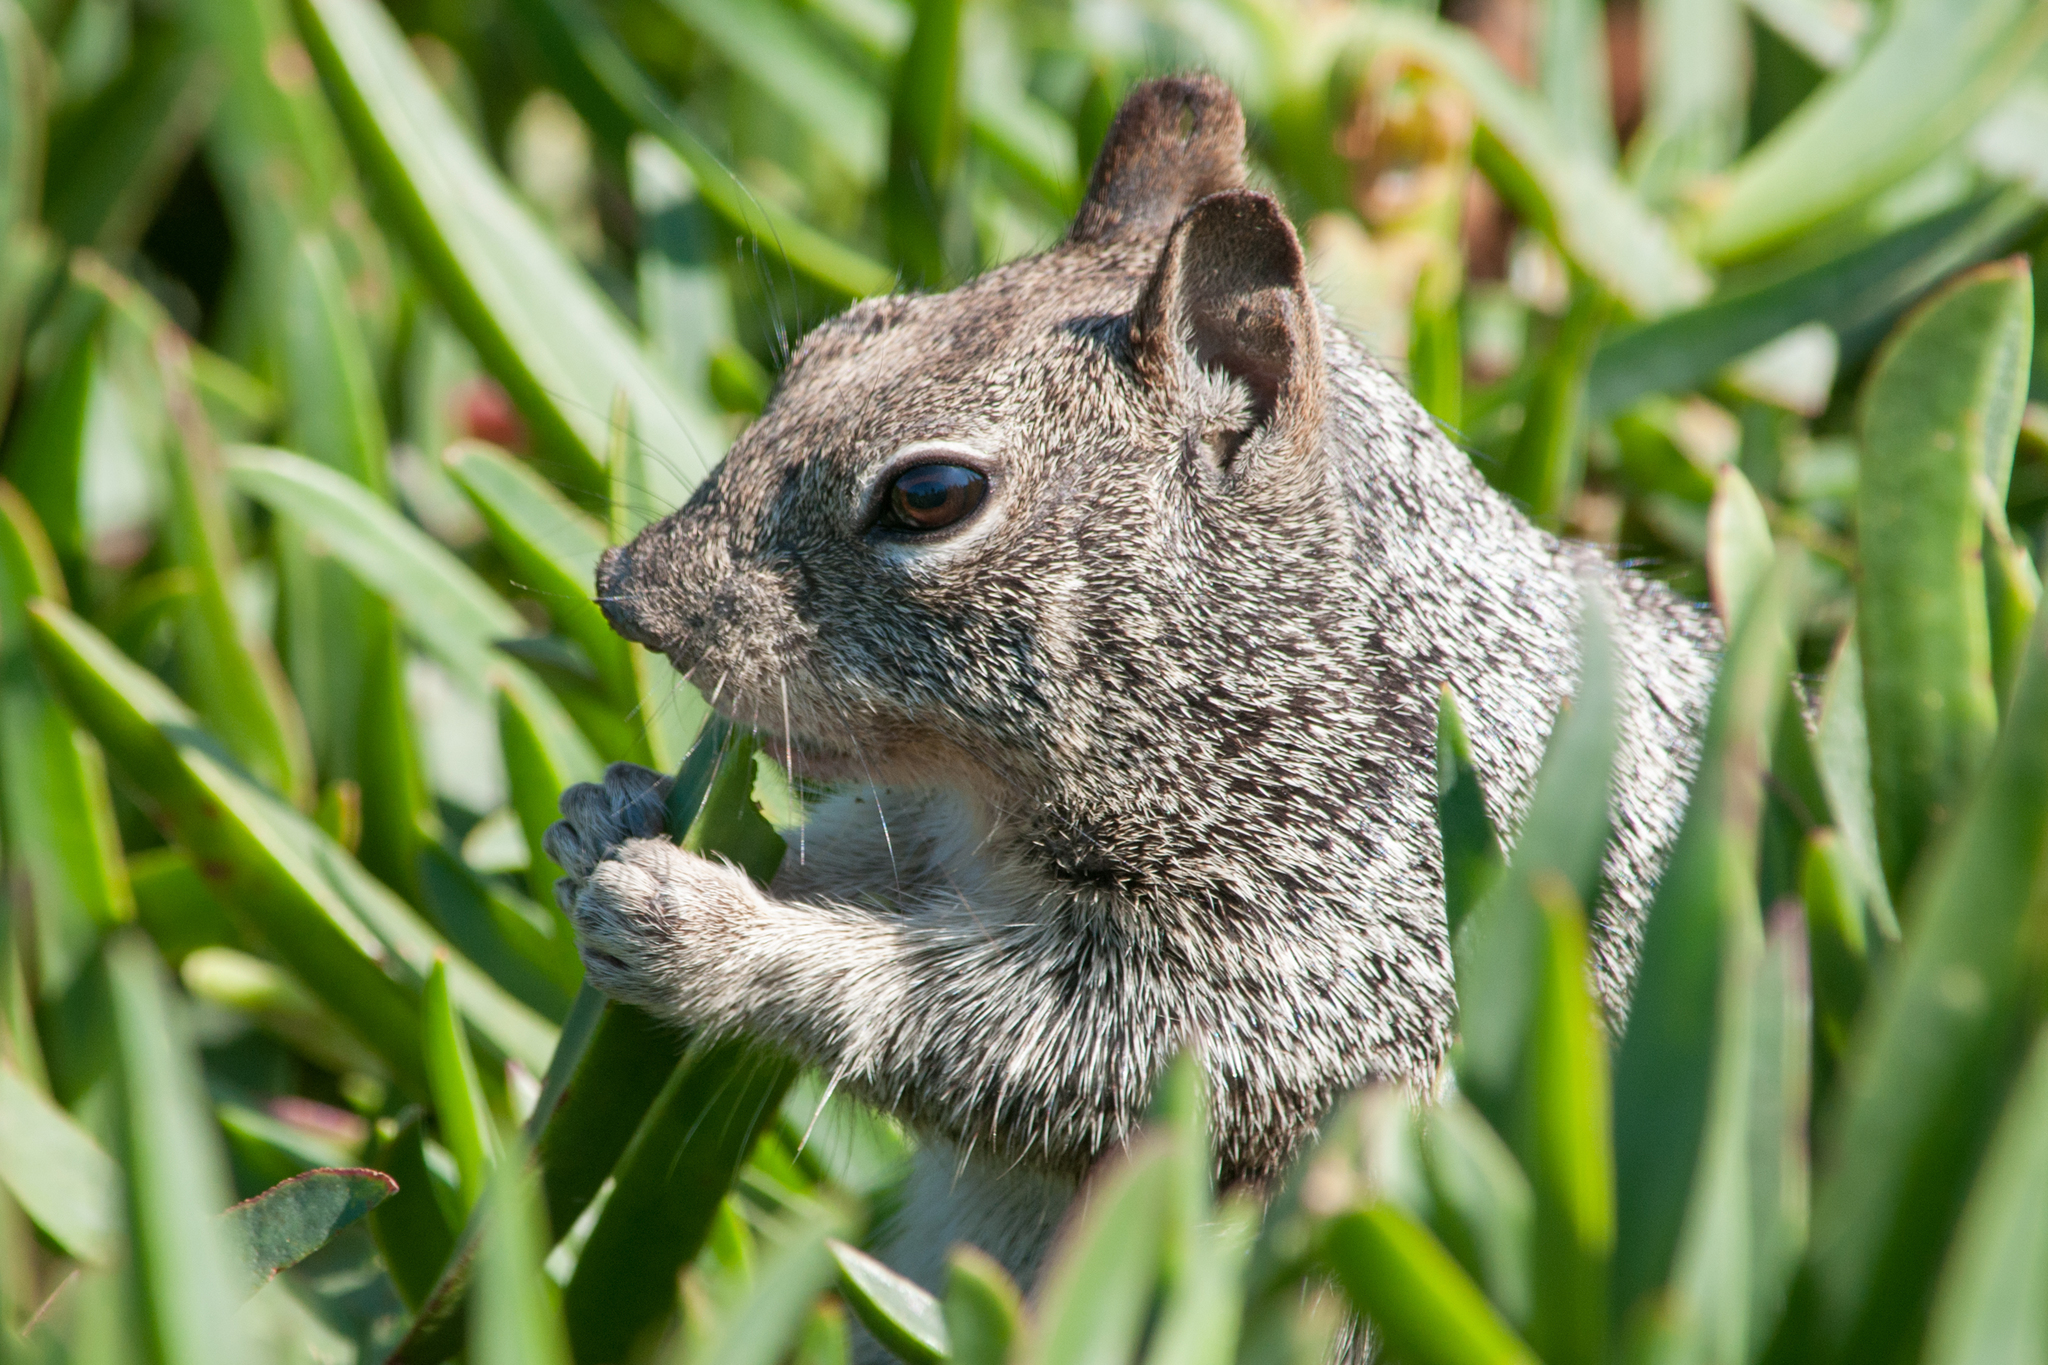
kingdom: Animalia
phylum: Chordata
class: Mammalia
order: Rodentia
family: Sciuridae
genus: Otospermophilus
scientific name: Otospermophilus beecheyi
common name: California ground squirrel
